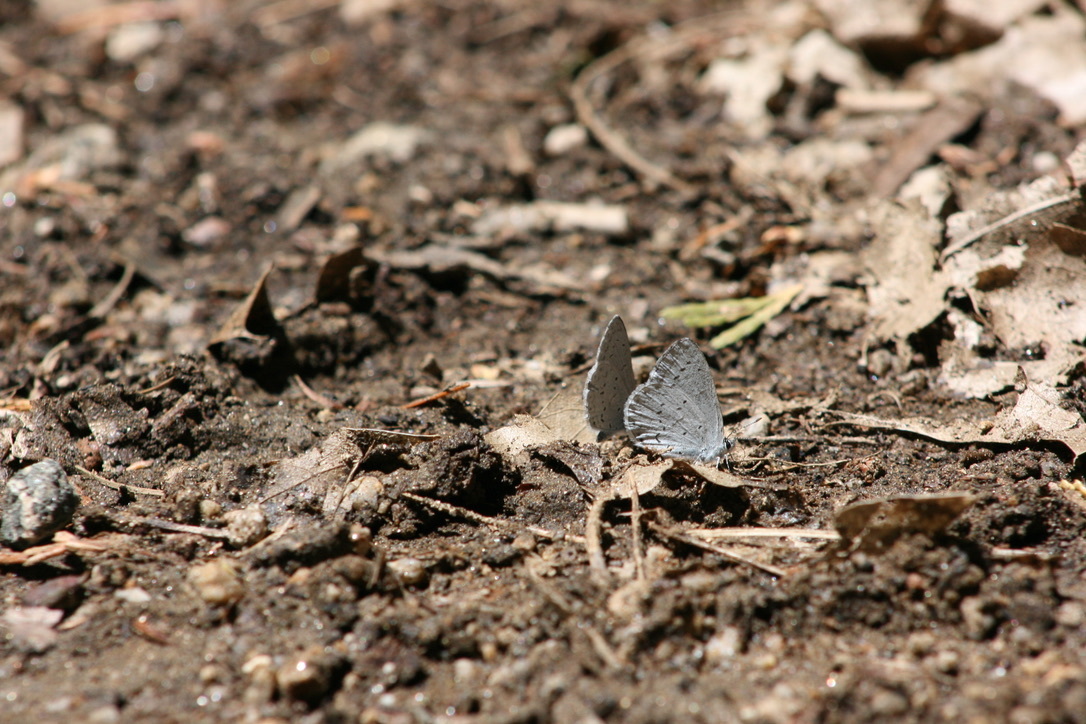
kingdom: Animalia
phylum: Arthropoda
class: Insecta
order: Lepidoptera
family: Lycaenidae
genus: Celastrina
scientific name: Celastrina ladon
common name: Spring azure
